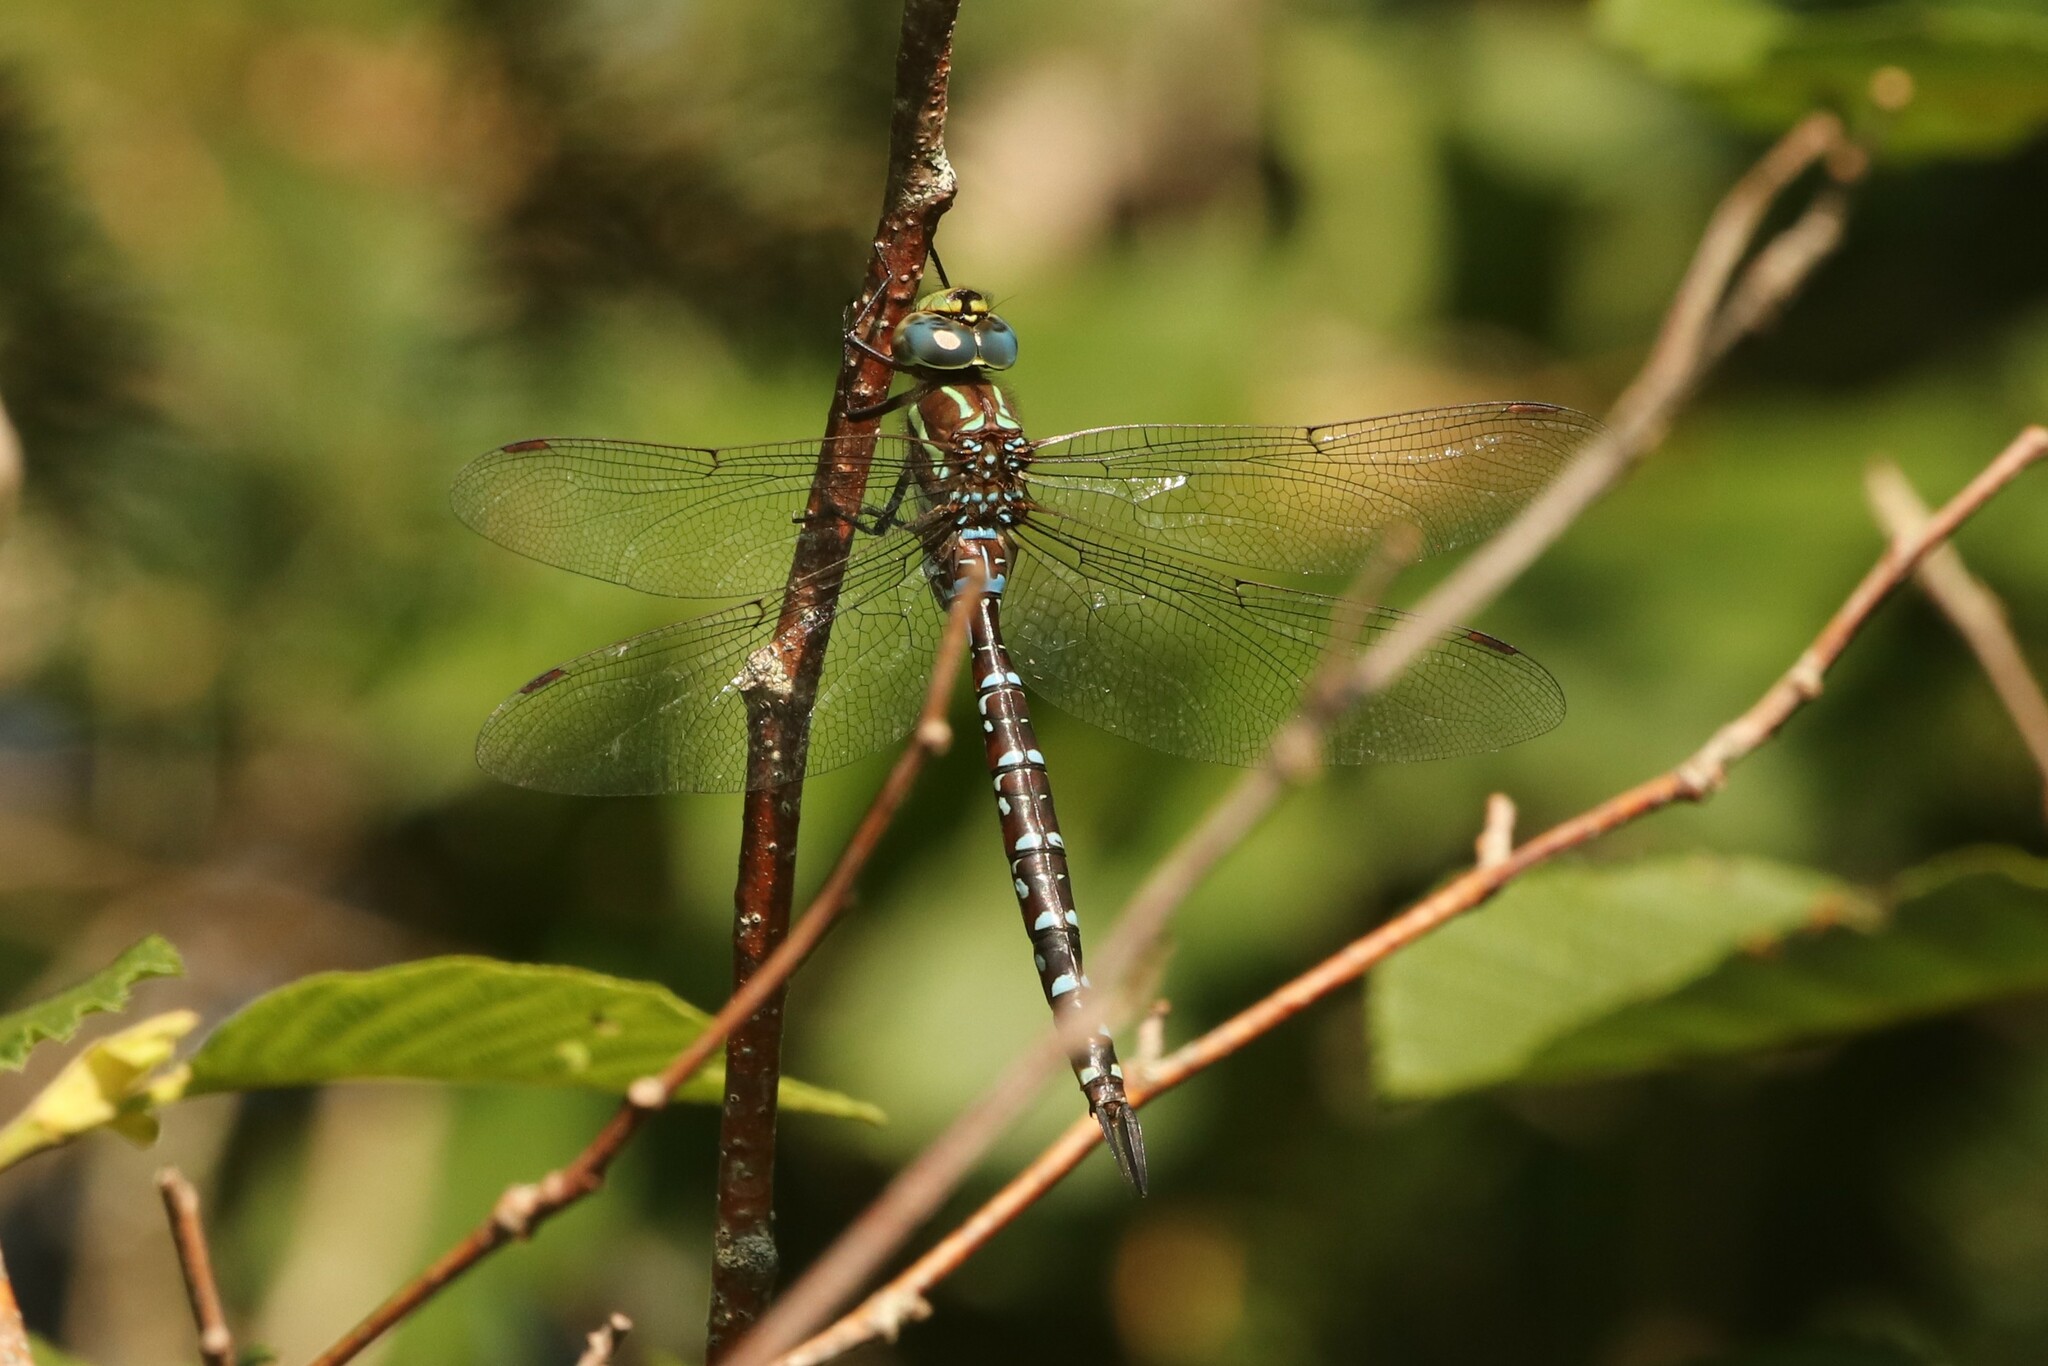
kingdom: Animalia
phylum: Arthropoda
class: Insecta
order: Odonata
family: Aeshnidae
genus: Aeshna
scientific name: Aeshna tuberculifera
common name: Aeschne à tubercules
